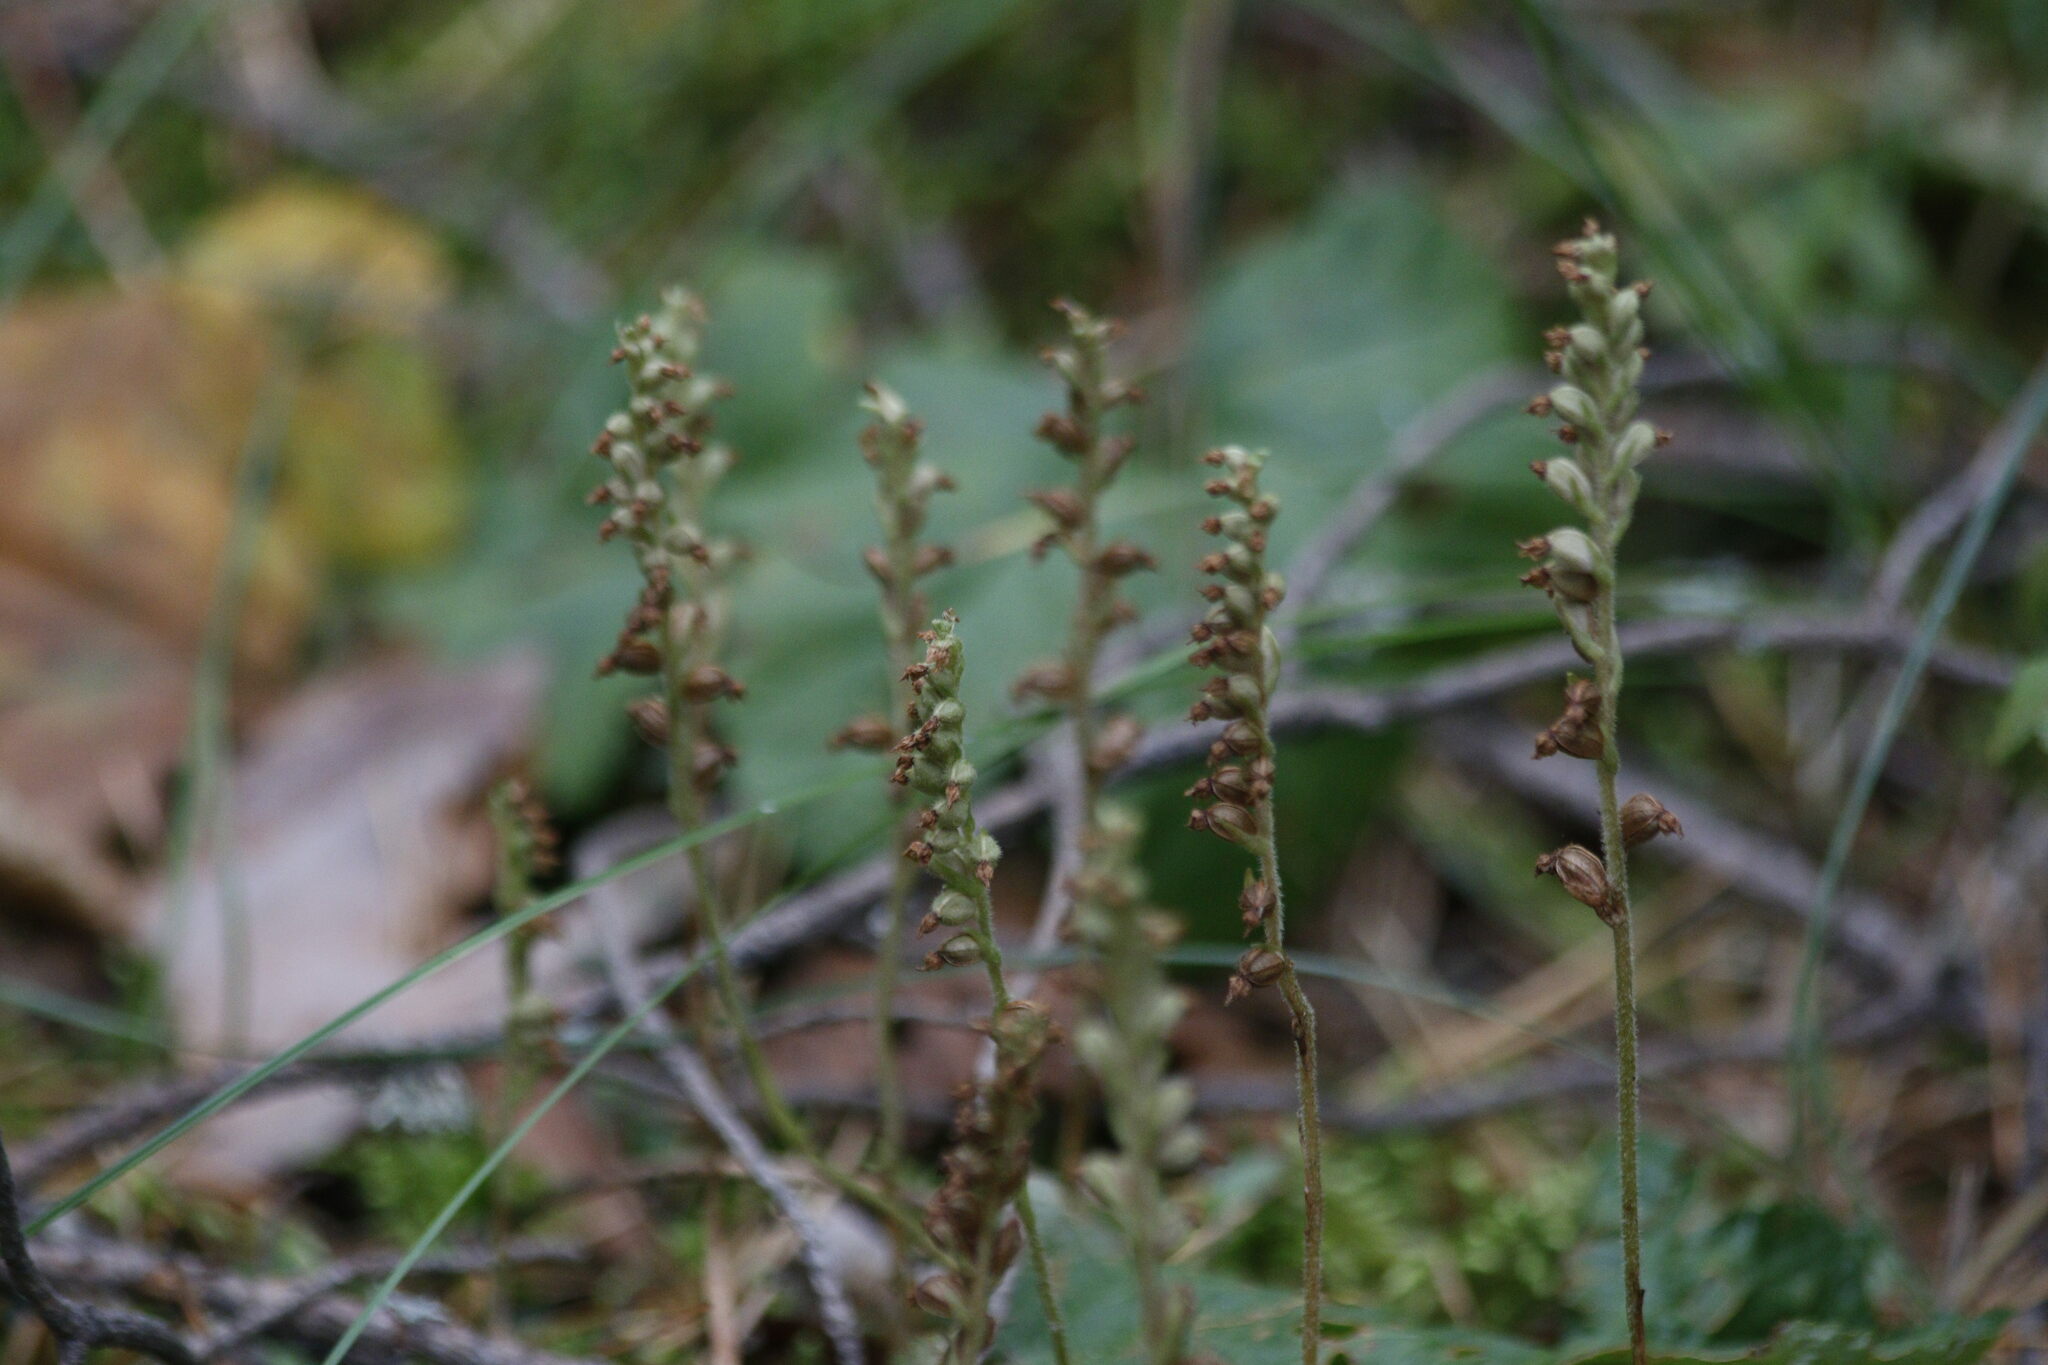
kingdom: Plantae
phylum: Tracheophyta
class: Liliopsida
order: Asparagales
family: Orchidaceae
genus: Goodyera
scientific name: Goodyera repens
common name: Creeping lady's-tresses
